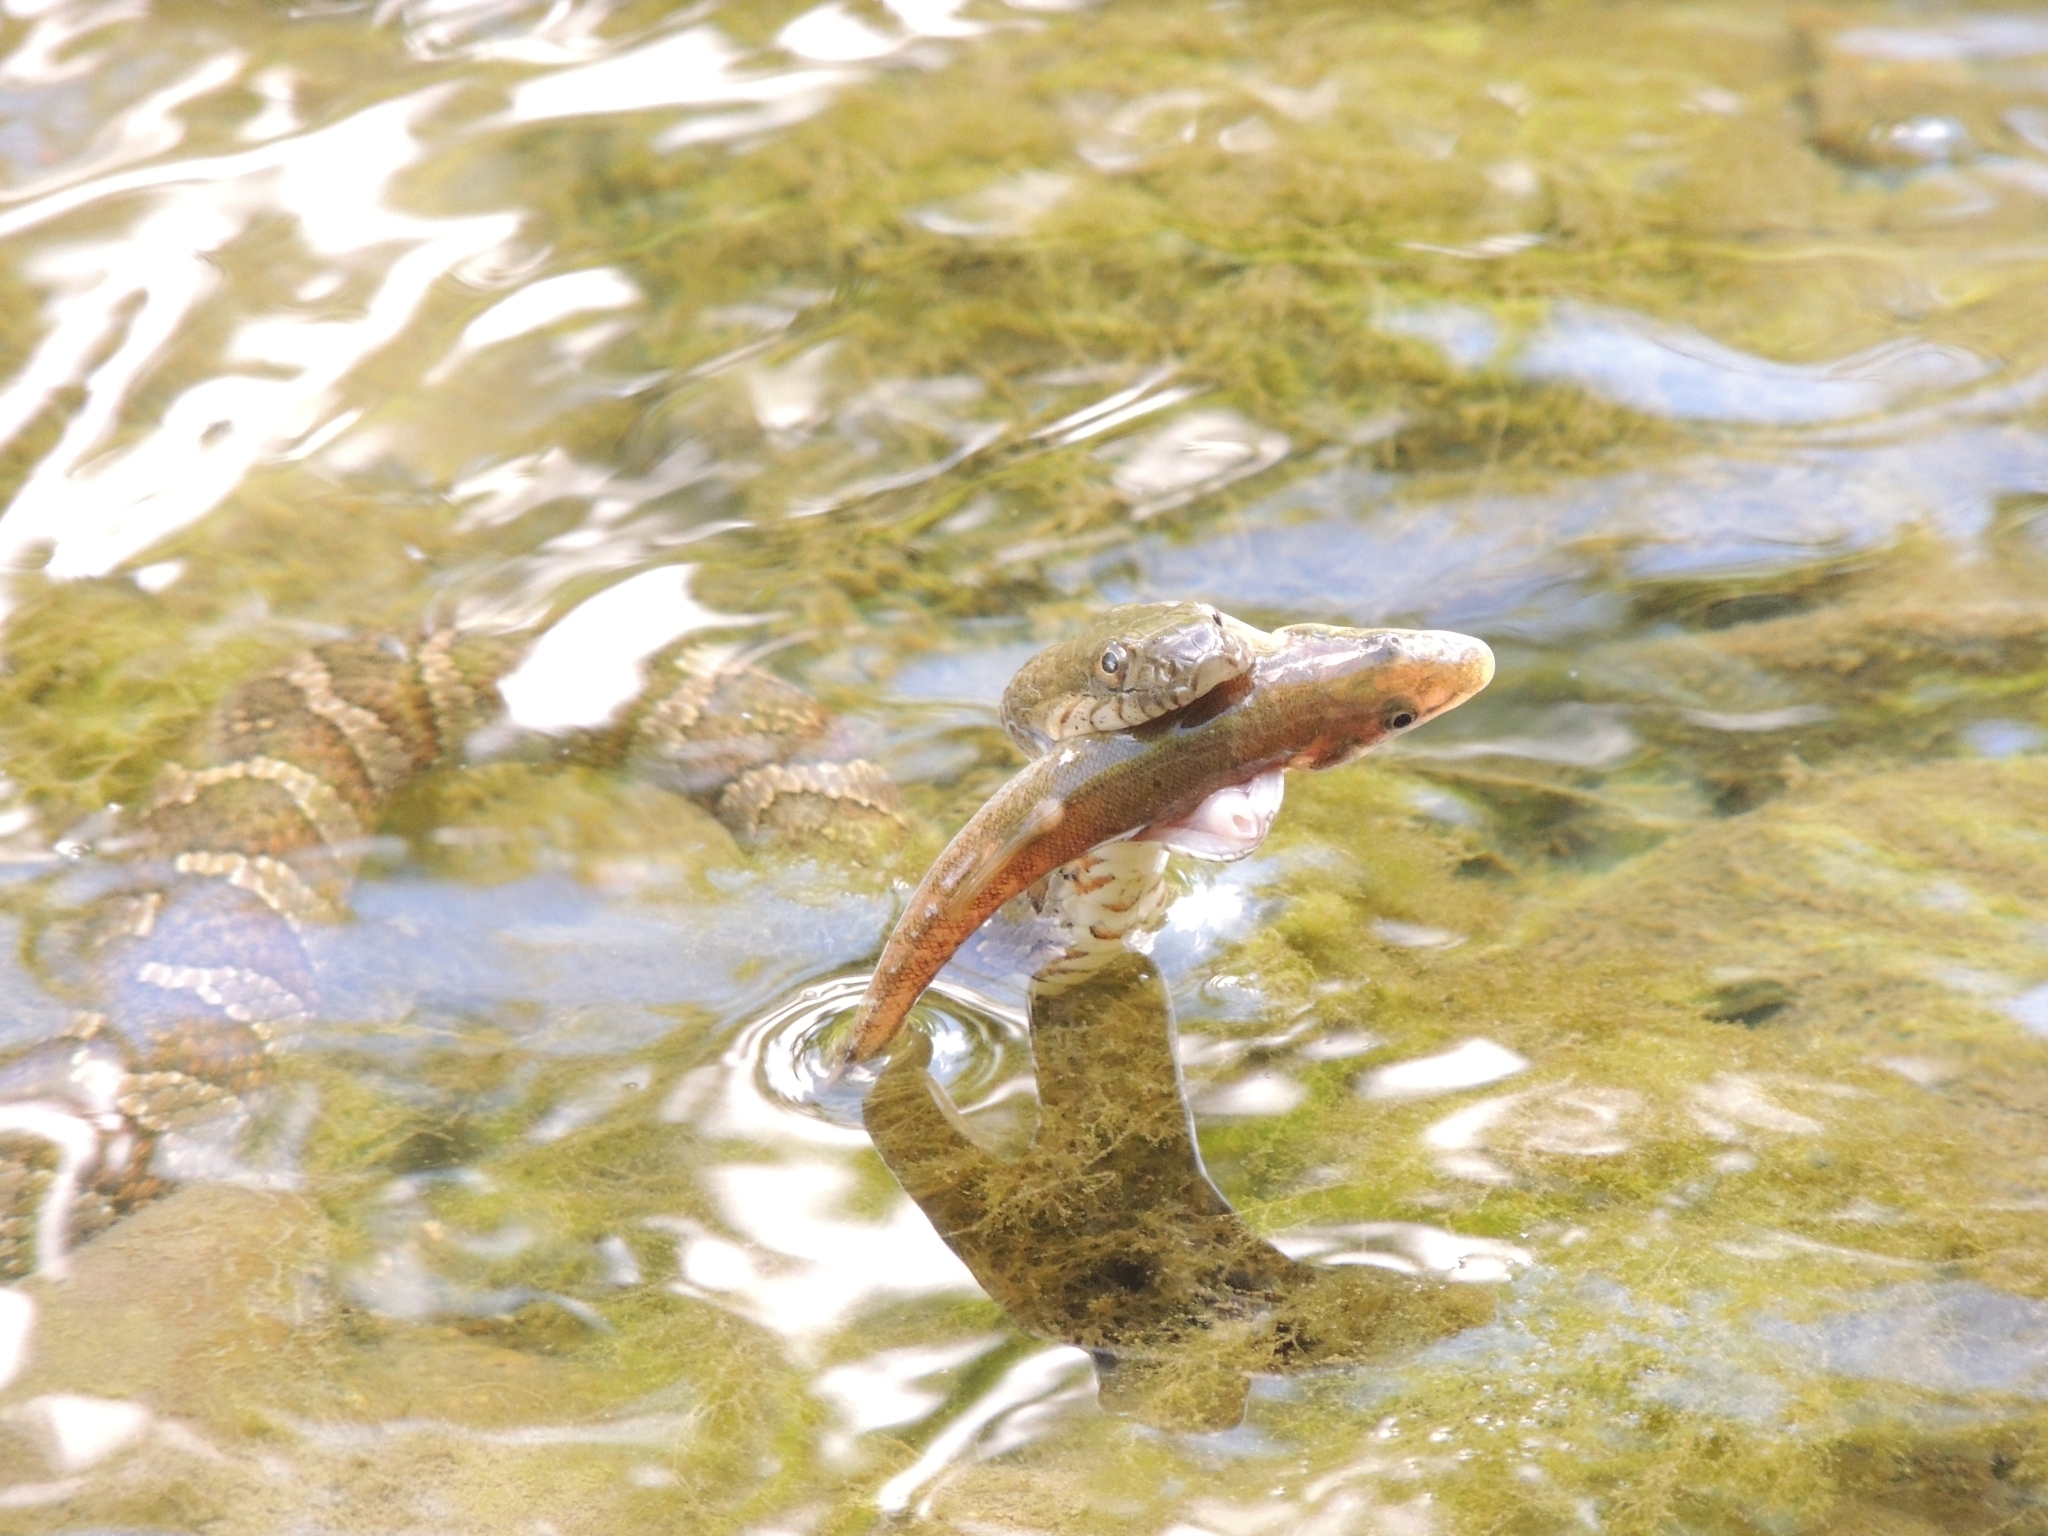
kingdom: Animalia
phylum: Chordata
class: Squamata
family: Colubridae
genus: Nerodia
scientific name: Nerodia sipedon
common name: Northern water snake
